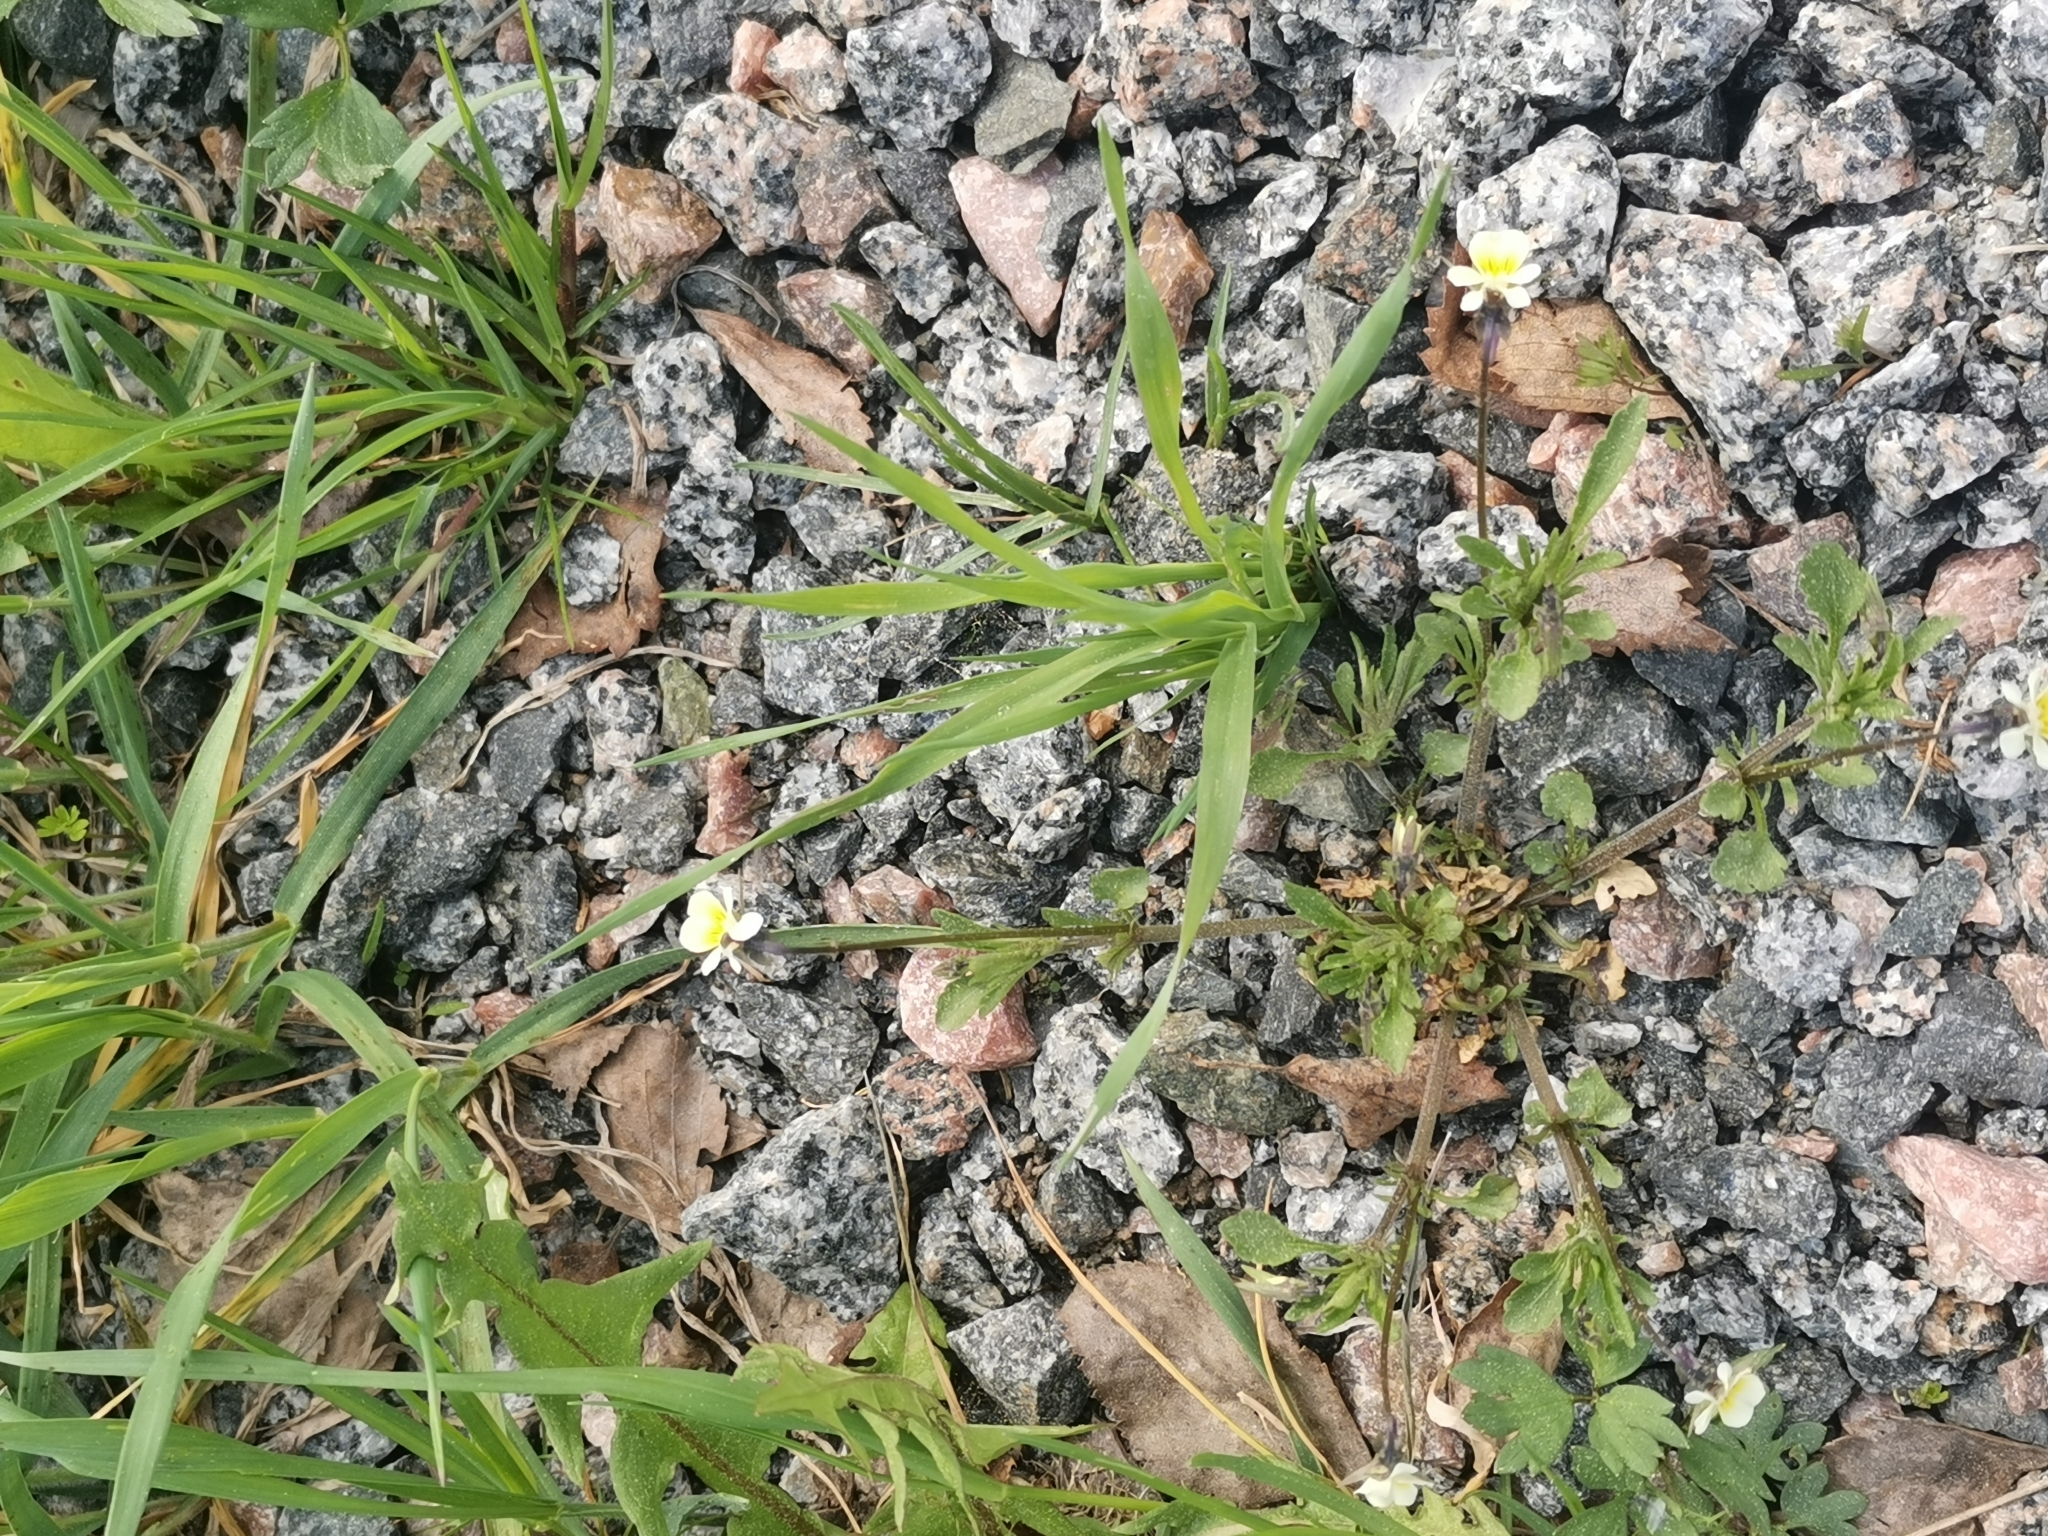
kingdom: Plantae
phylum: Tracheophyta
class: Magnoliopsida
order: Malpighiales
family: Violaceae
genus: Viola
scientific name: Viola arvensis
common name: Field pansy
